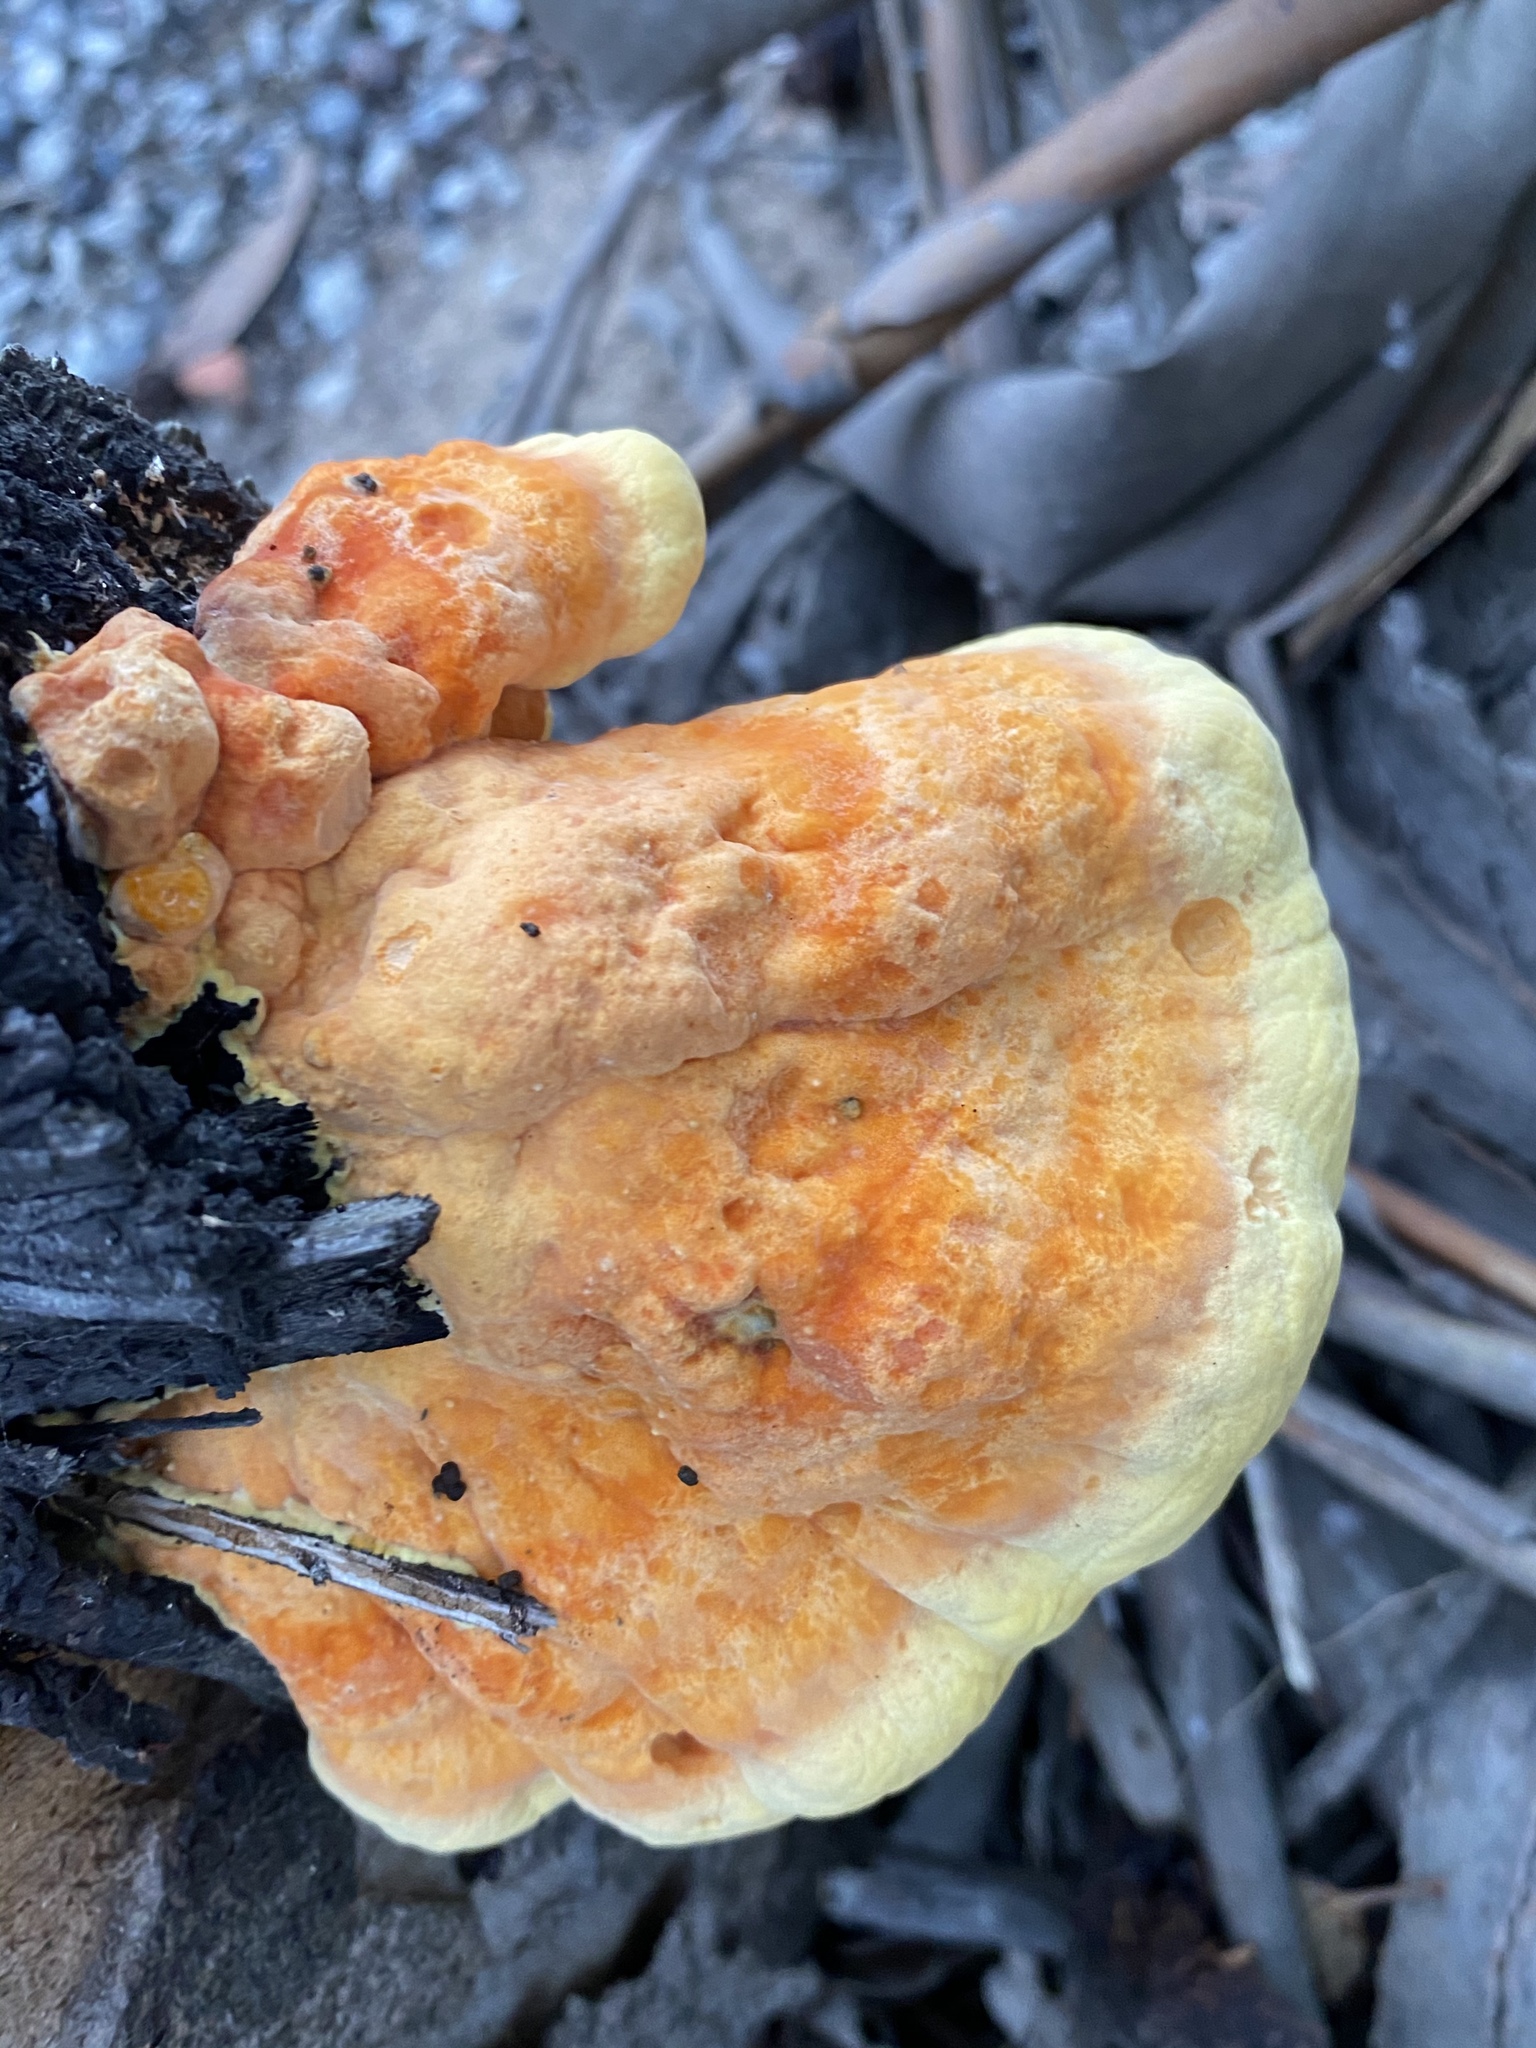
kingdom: Fungi
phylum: Basidiomycota
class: Agaricomycetes
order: Polyporales
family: Laetiporaceae
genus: Laetiporus
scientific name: Laetiporus gilbertsonii
